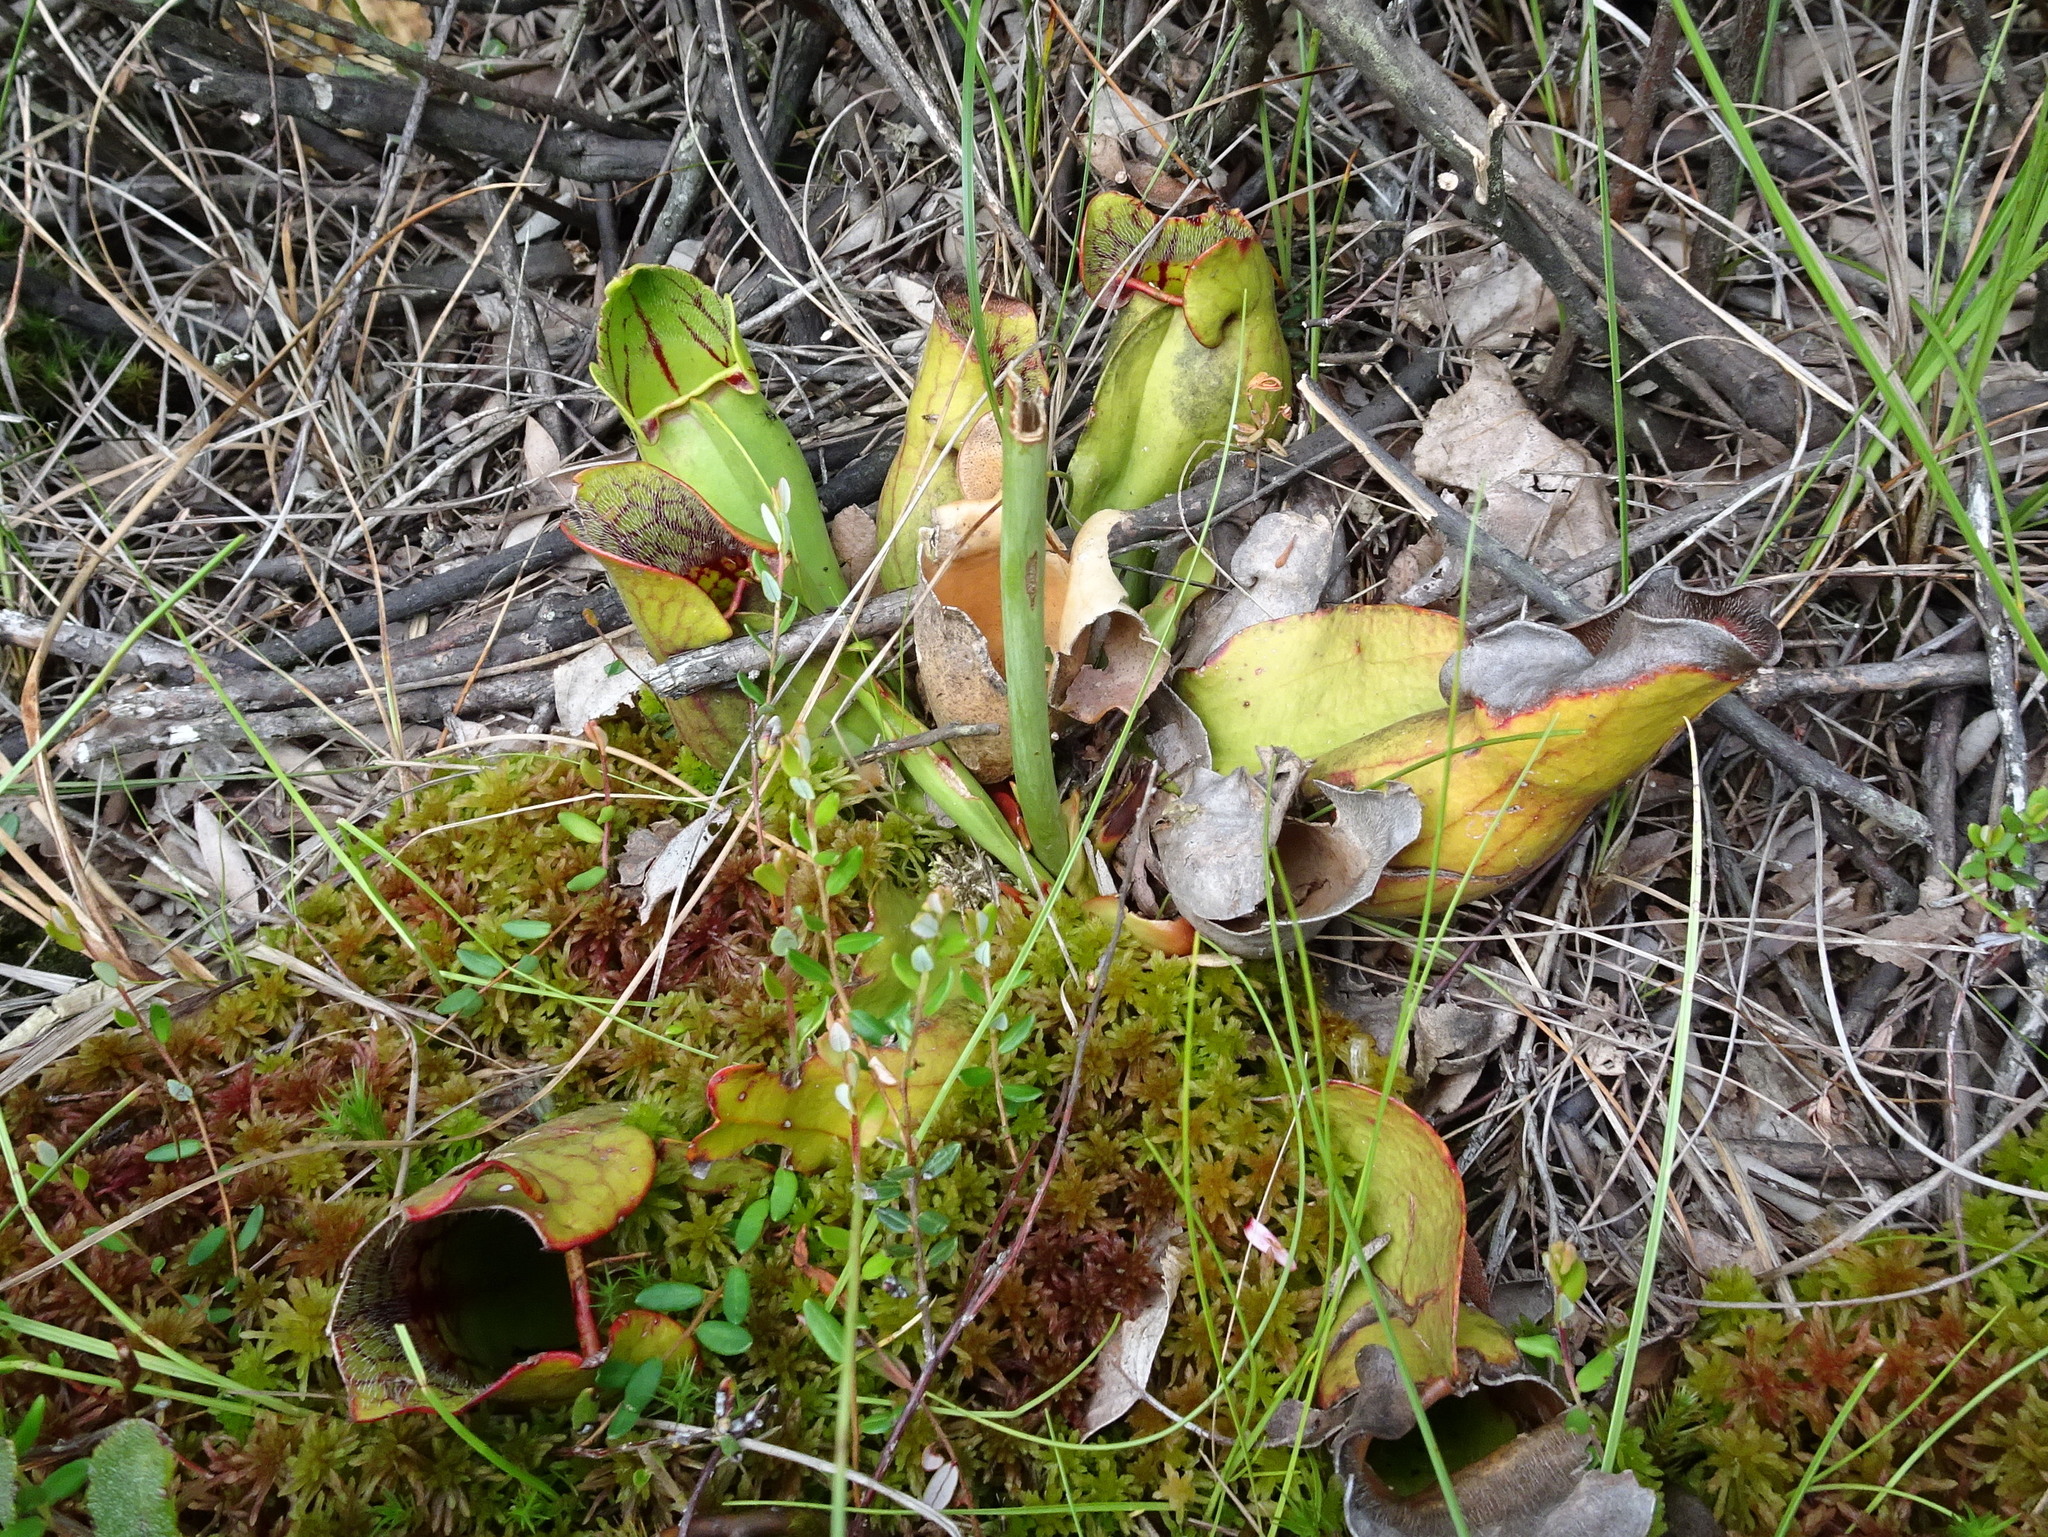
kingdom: Plantae
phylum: Tracheophyta
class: Magnoliopsida
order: Ericales
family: Sarraceniaceae
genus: Sarracenia
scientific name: Sarracenia purpurea
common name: Pitcherplant
